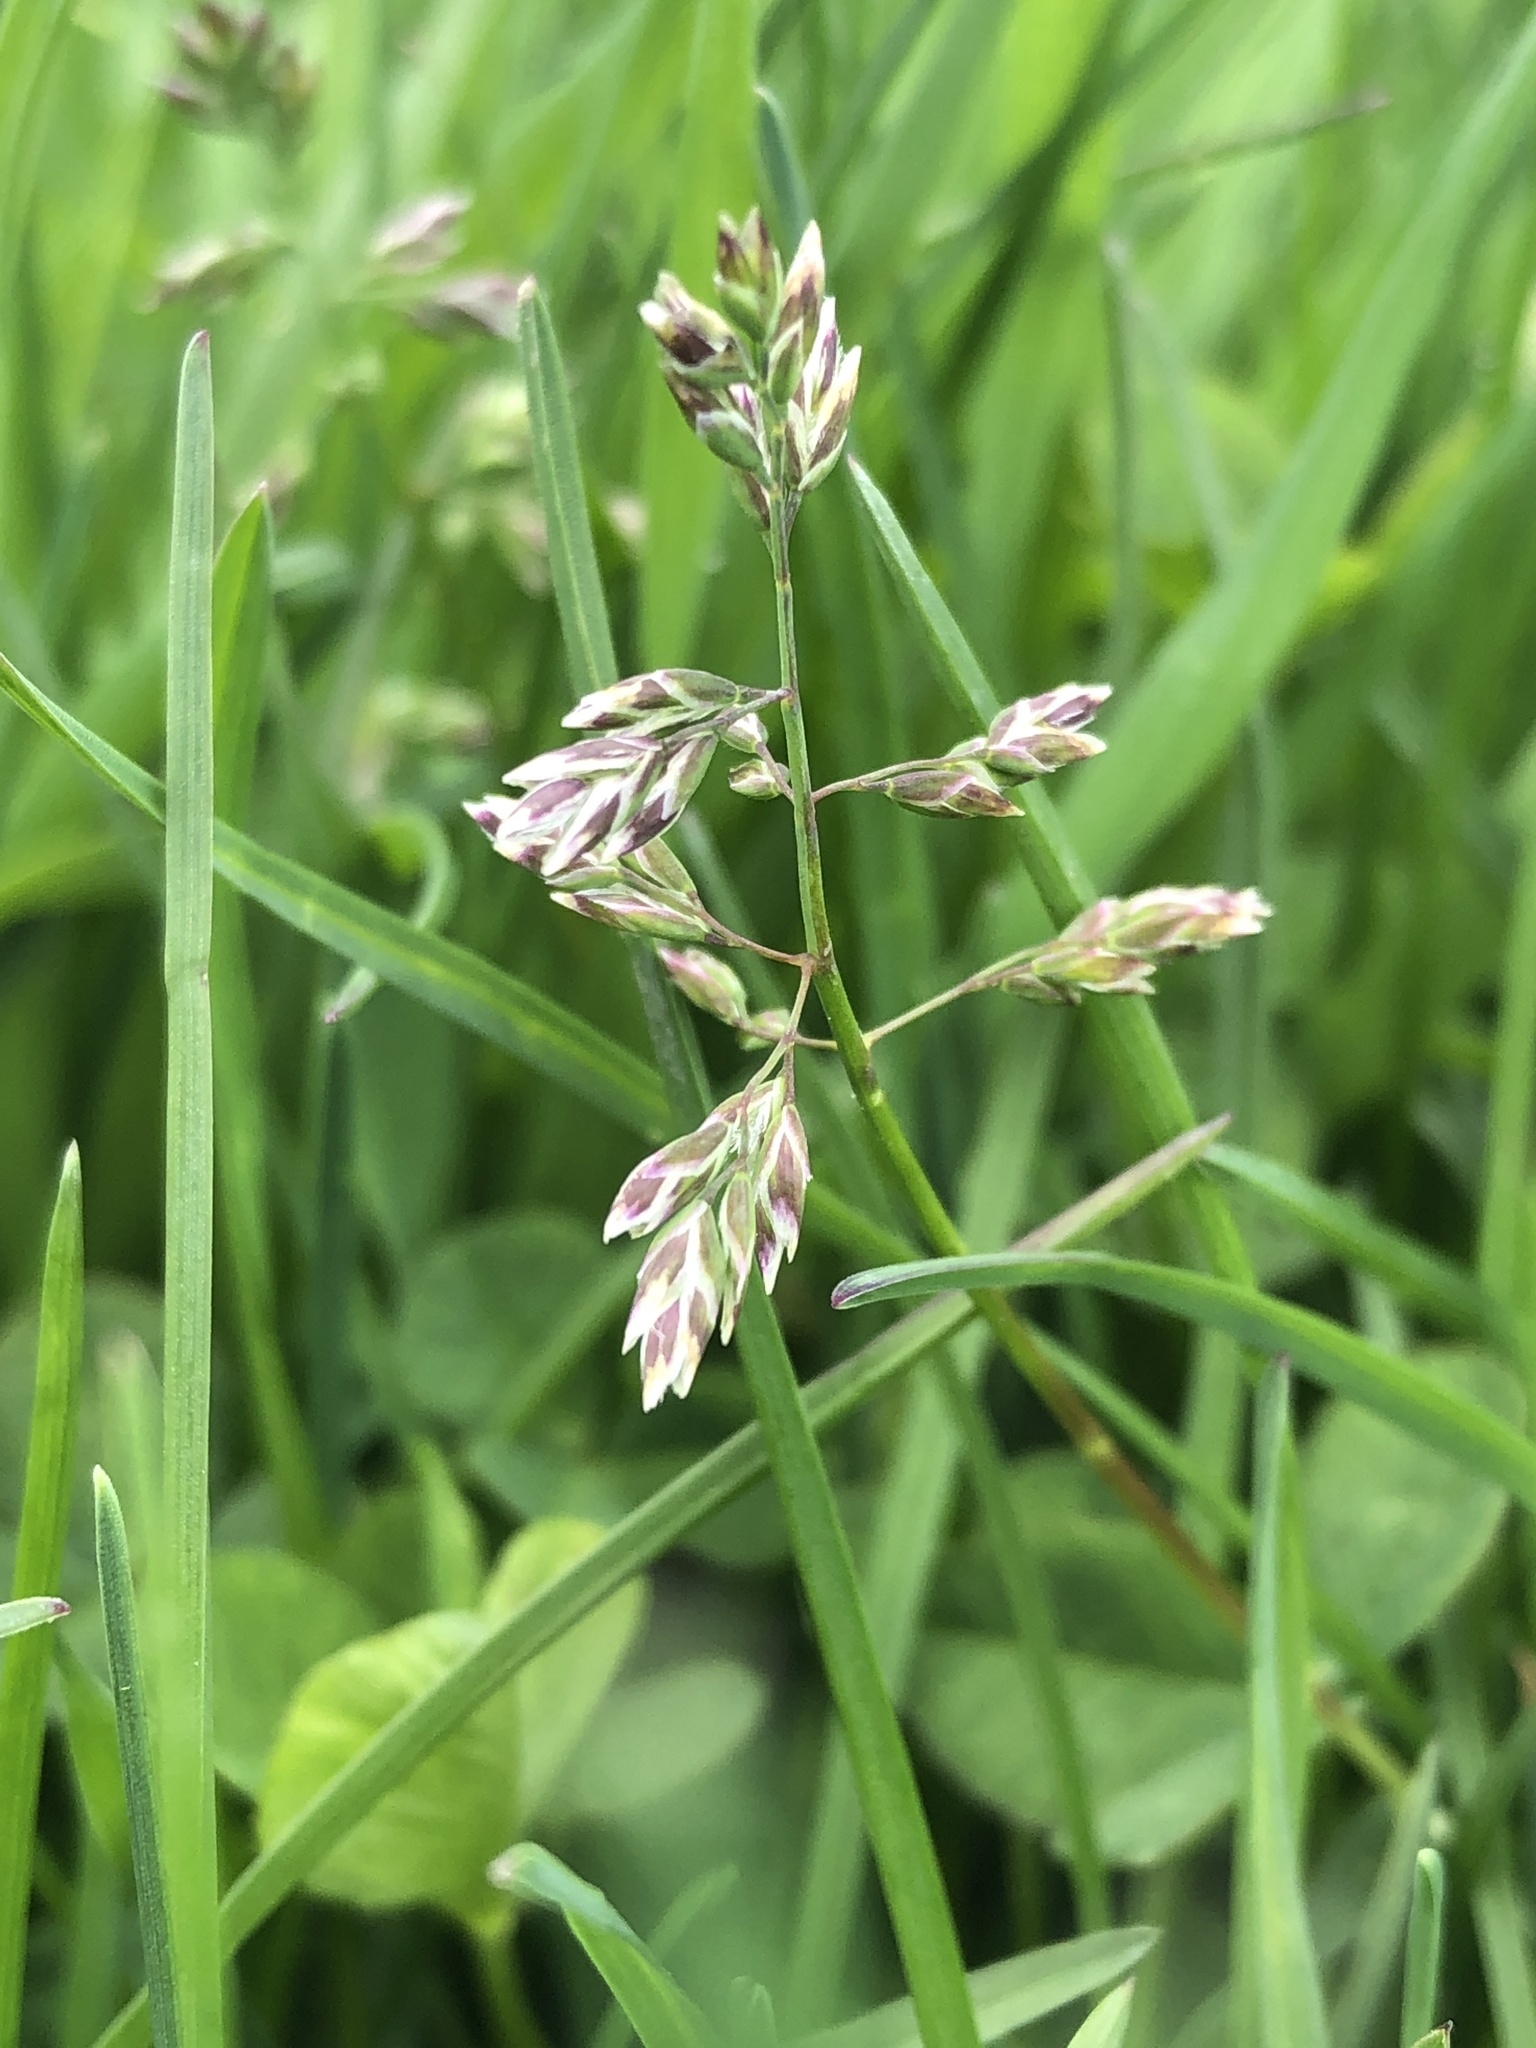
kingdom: Plantae
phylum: Tracheophyta
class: Liliopsida
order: Poales
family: Poaceae
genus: Poa
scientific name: Poa pratensis
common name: Kentucky bluegrass
